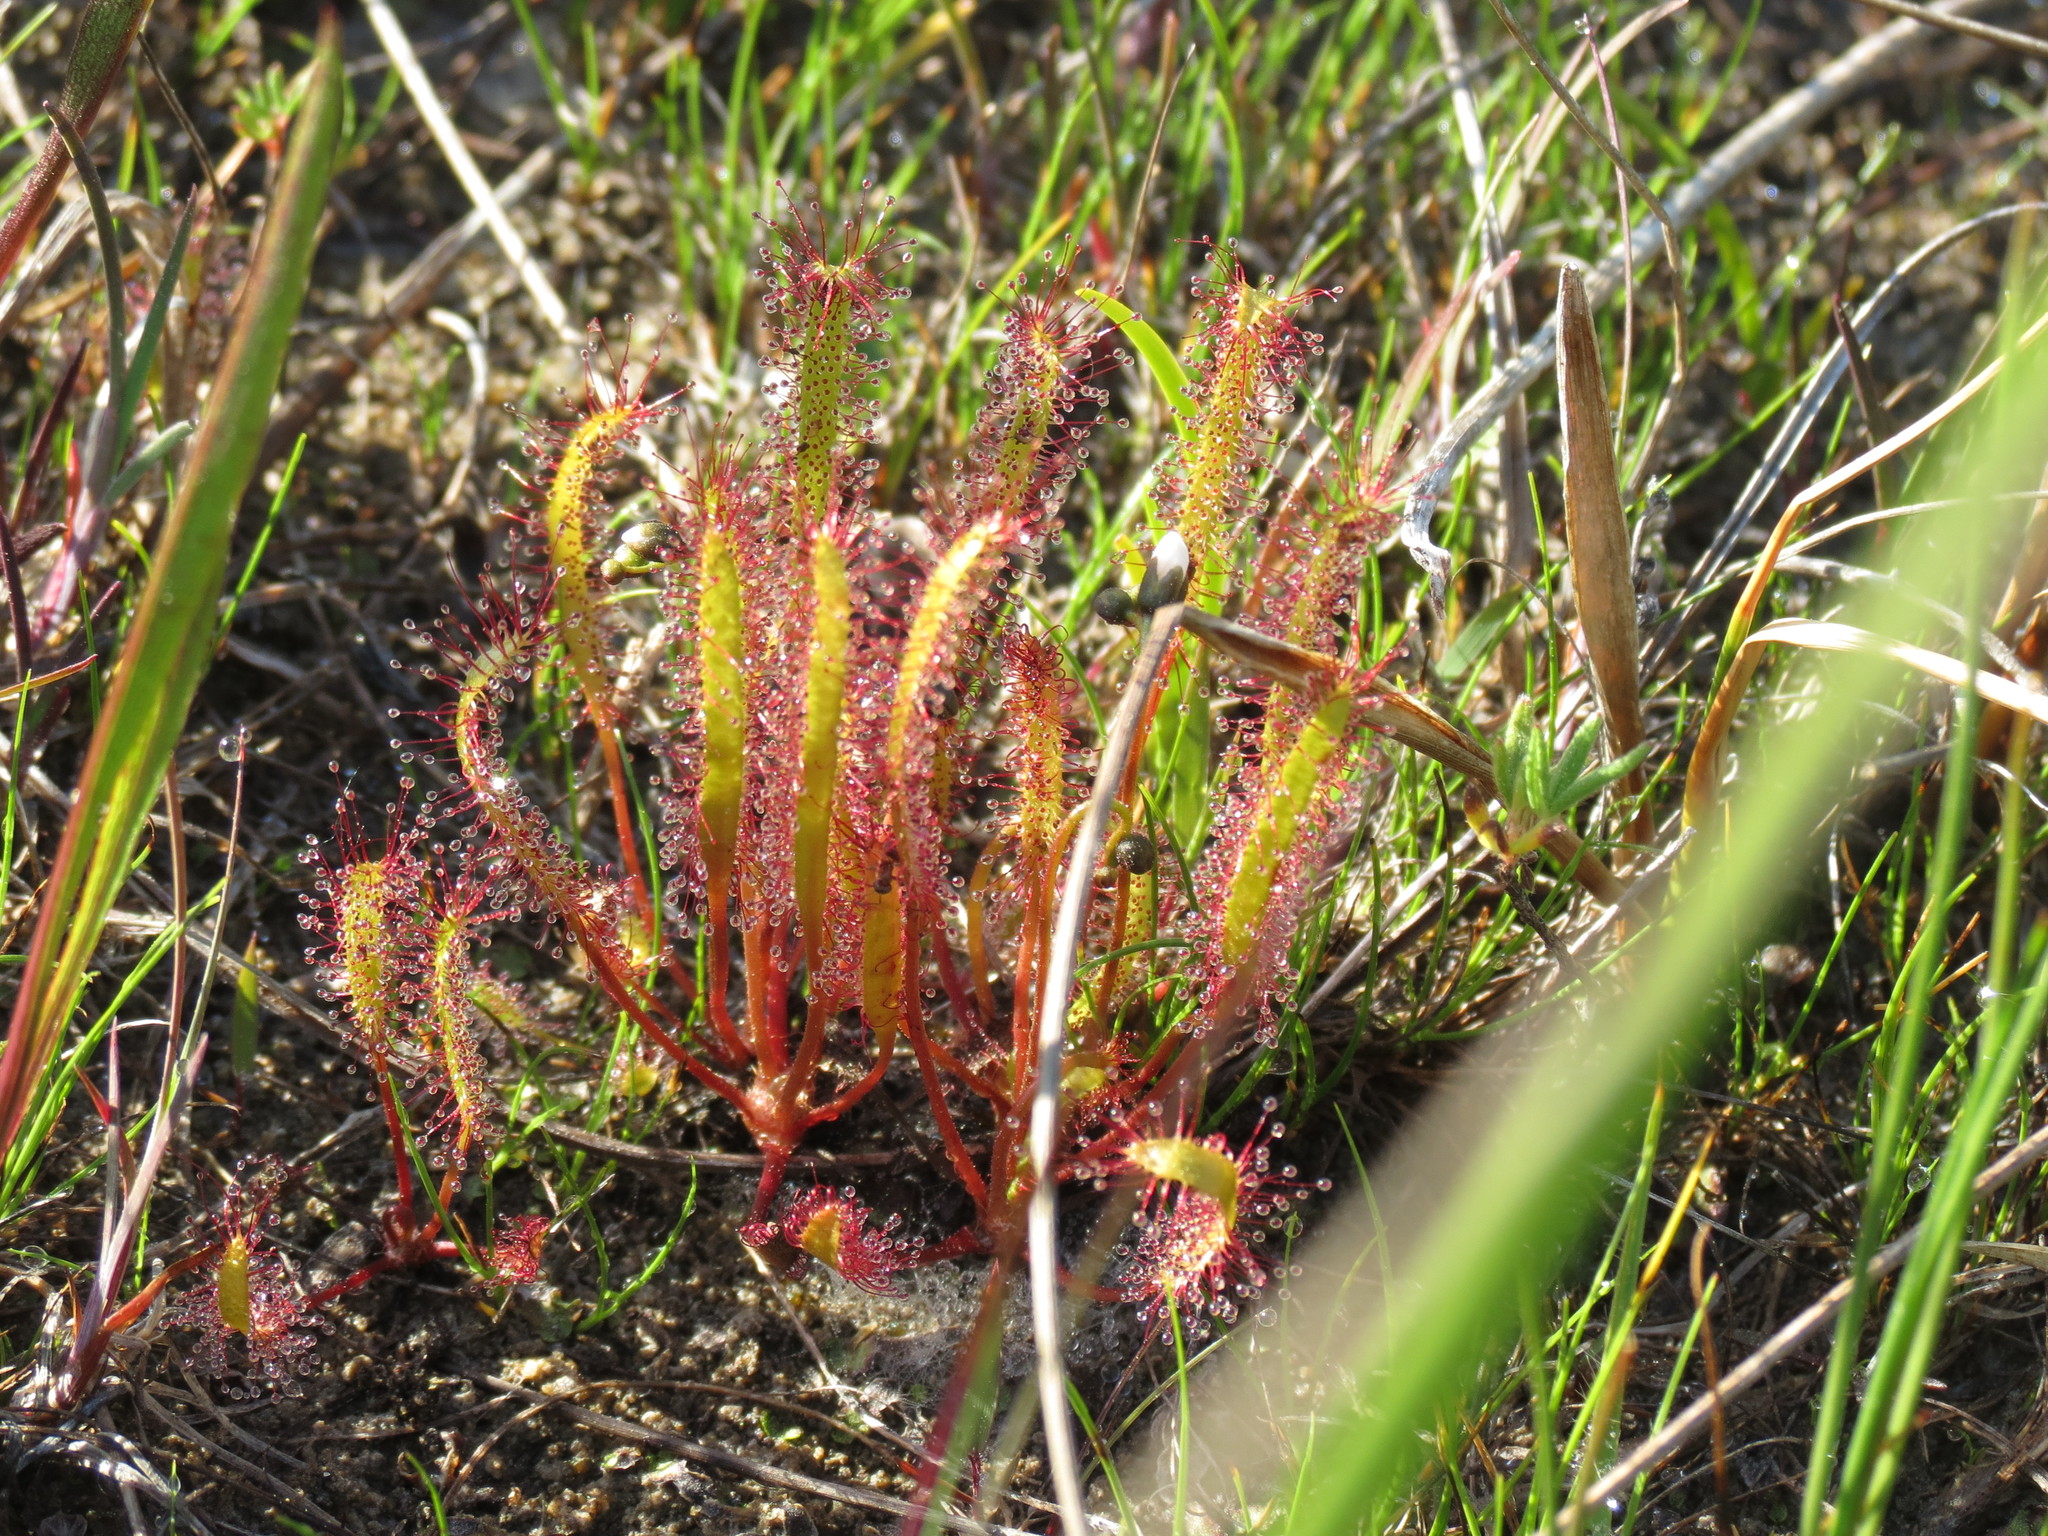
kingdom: Plantae
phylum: Tracheophyta
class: Magnoliopsida
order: Caryophyllales
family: Droseraceae
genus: Drosera
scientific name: Drosera linearis
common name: Linear-leaved sundew
